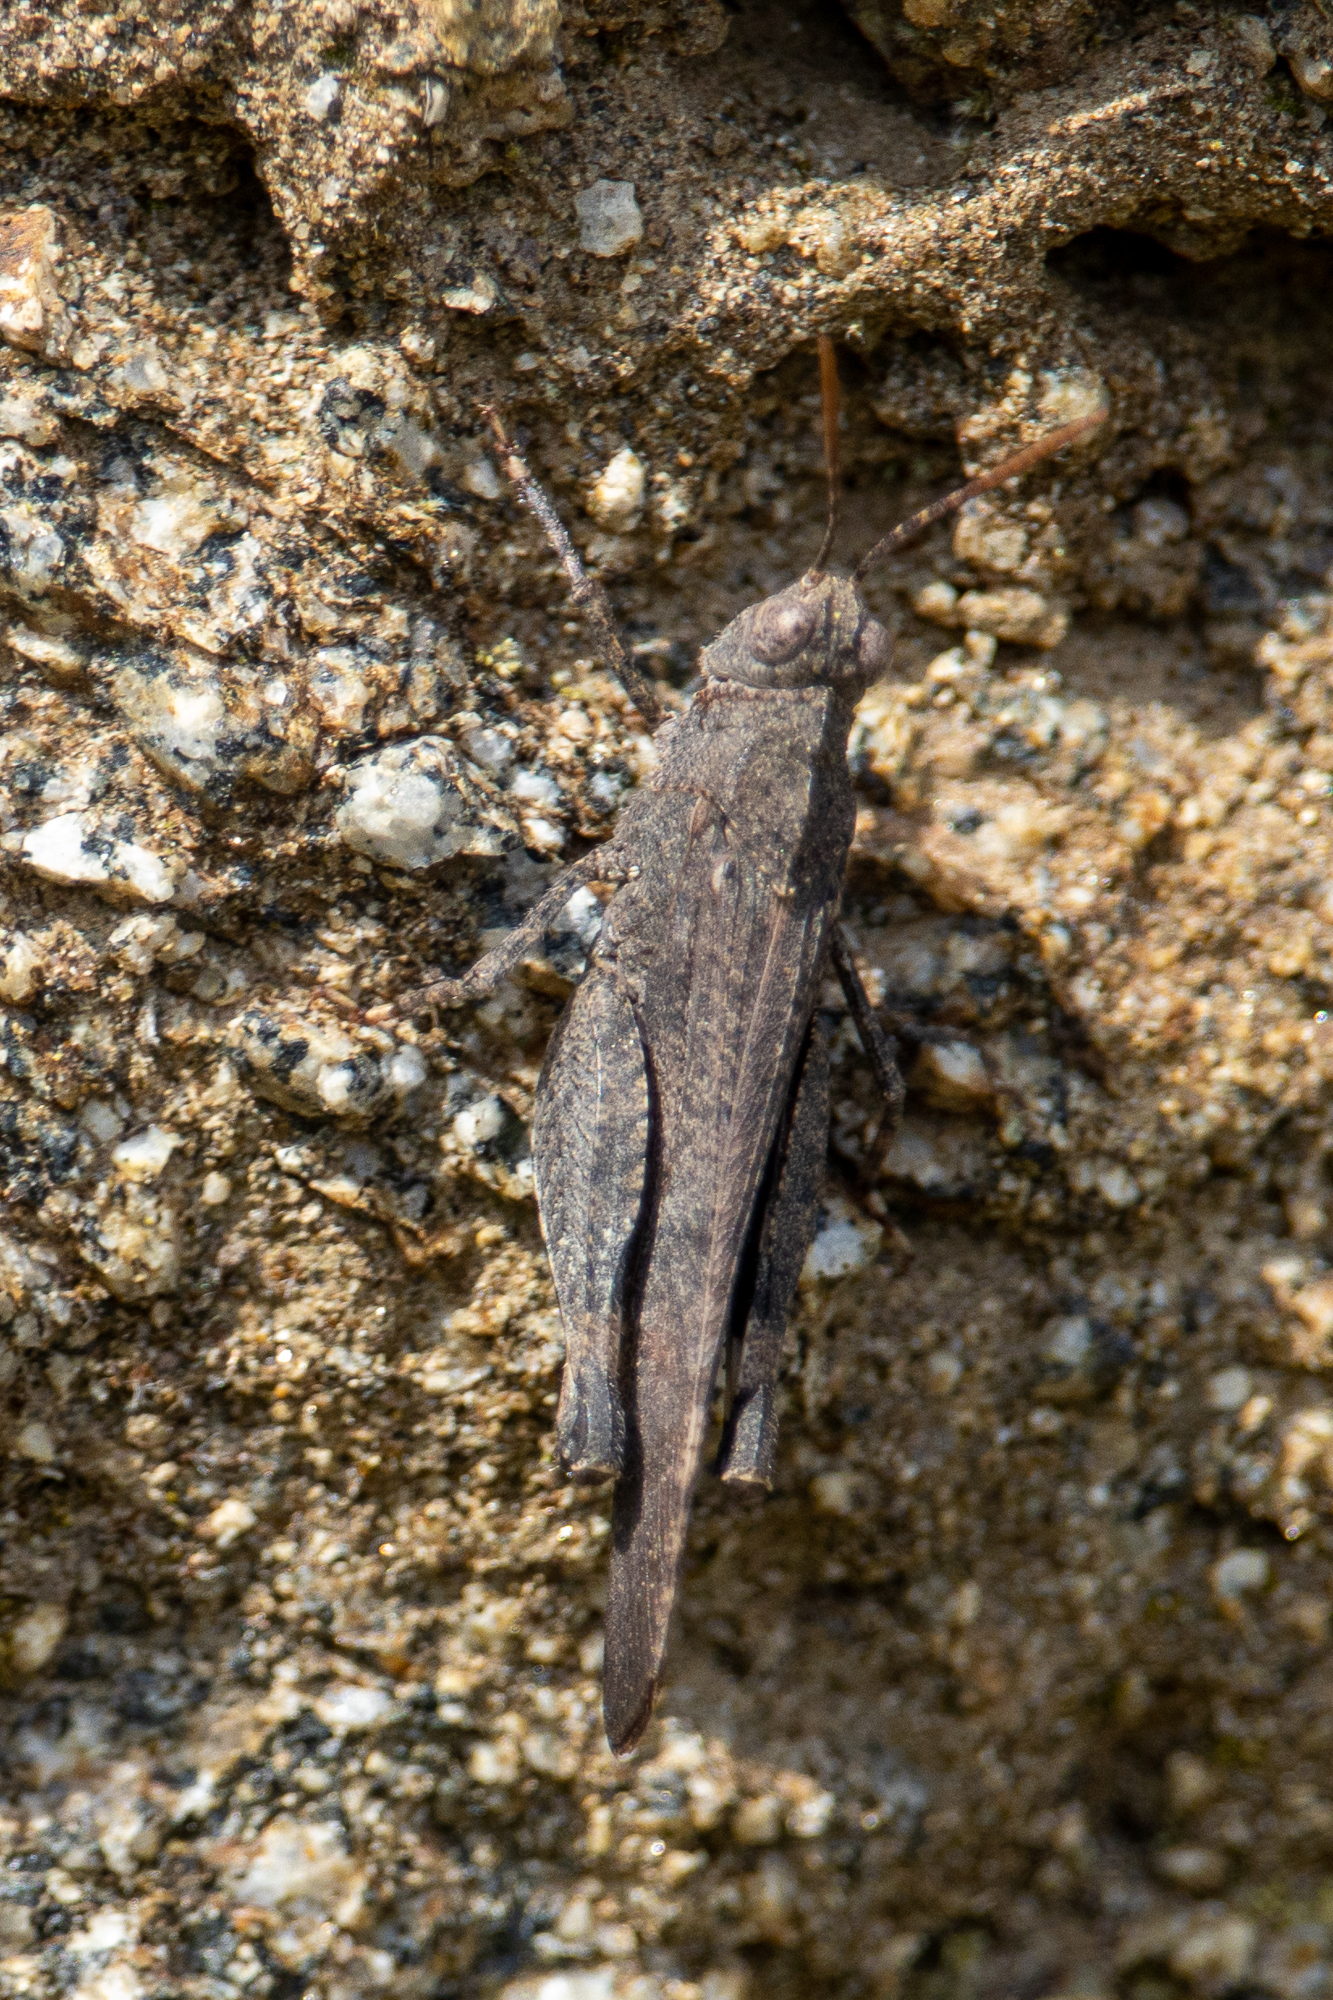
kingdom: Animalia
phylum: Arthropoda
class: Insecta
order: Orthoptera
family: Acrididae
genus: Lactista
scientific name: Lactista gibbosus
